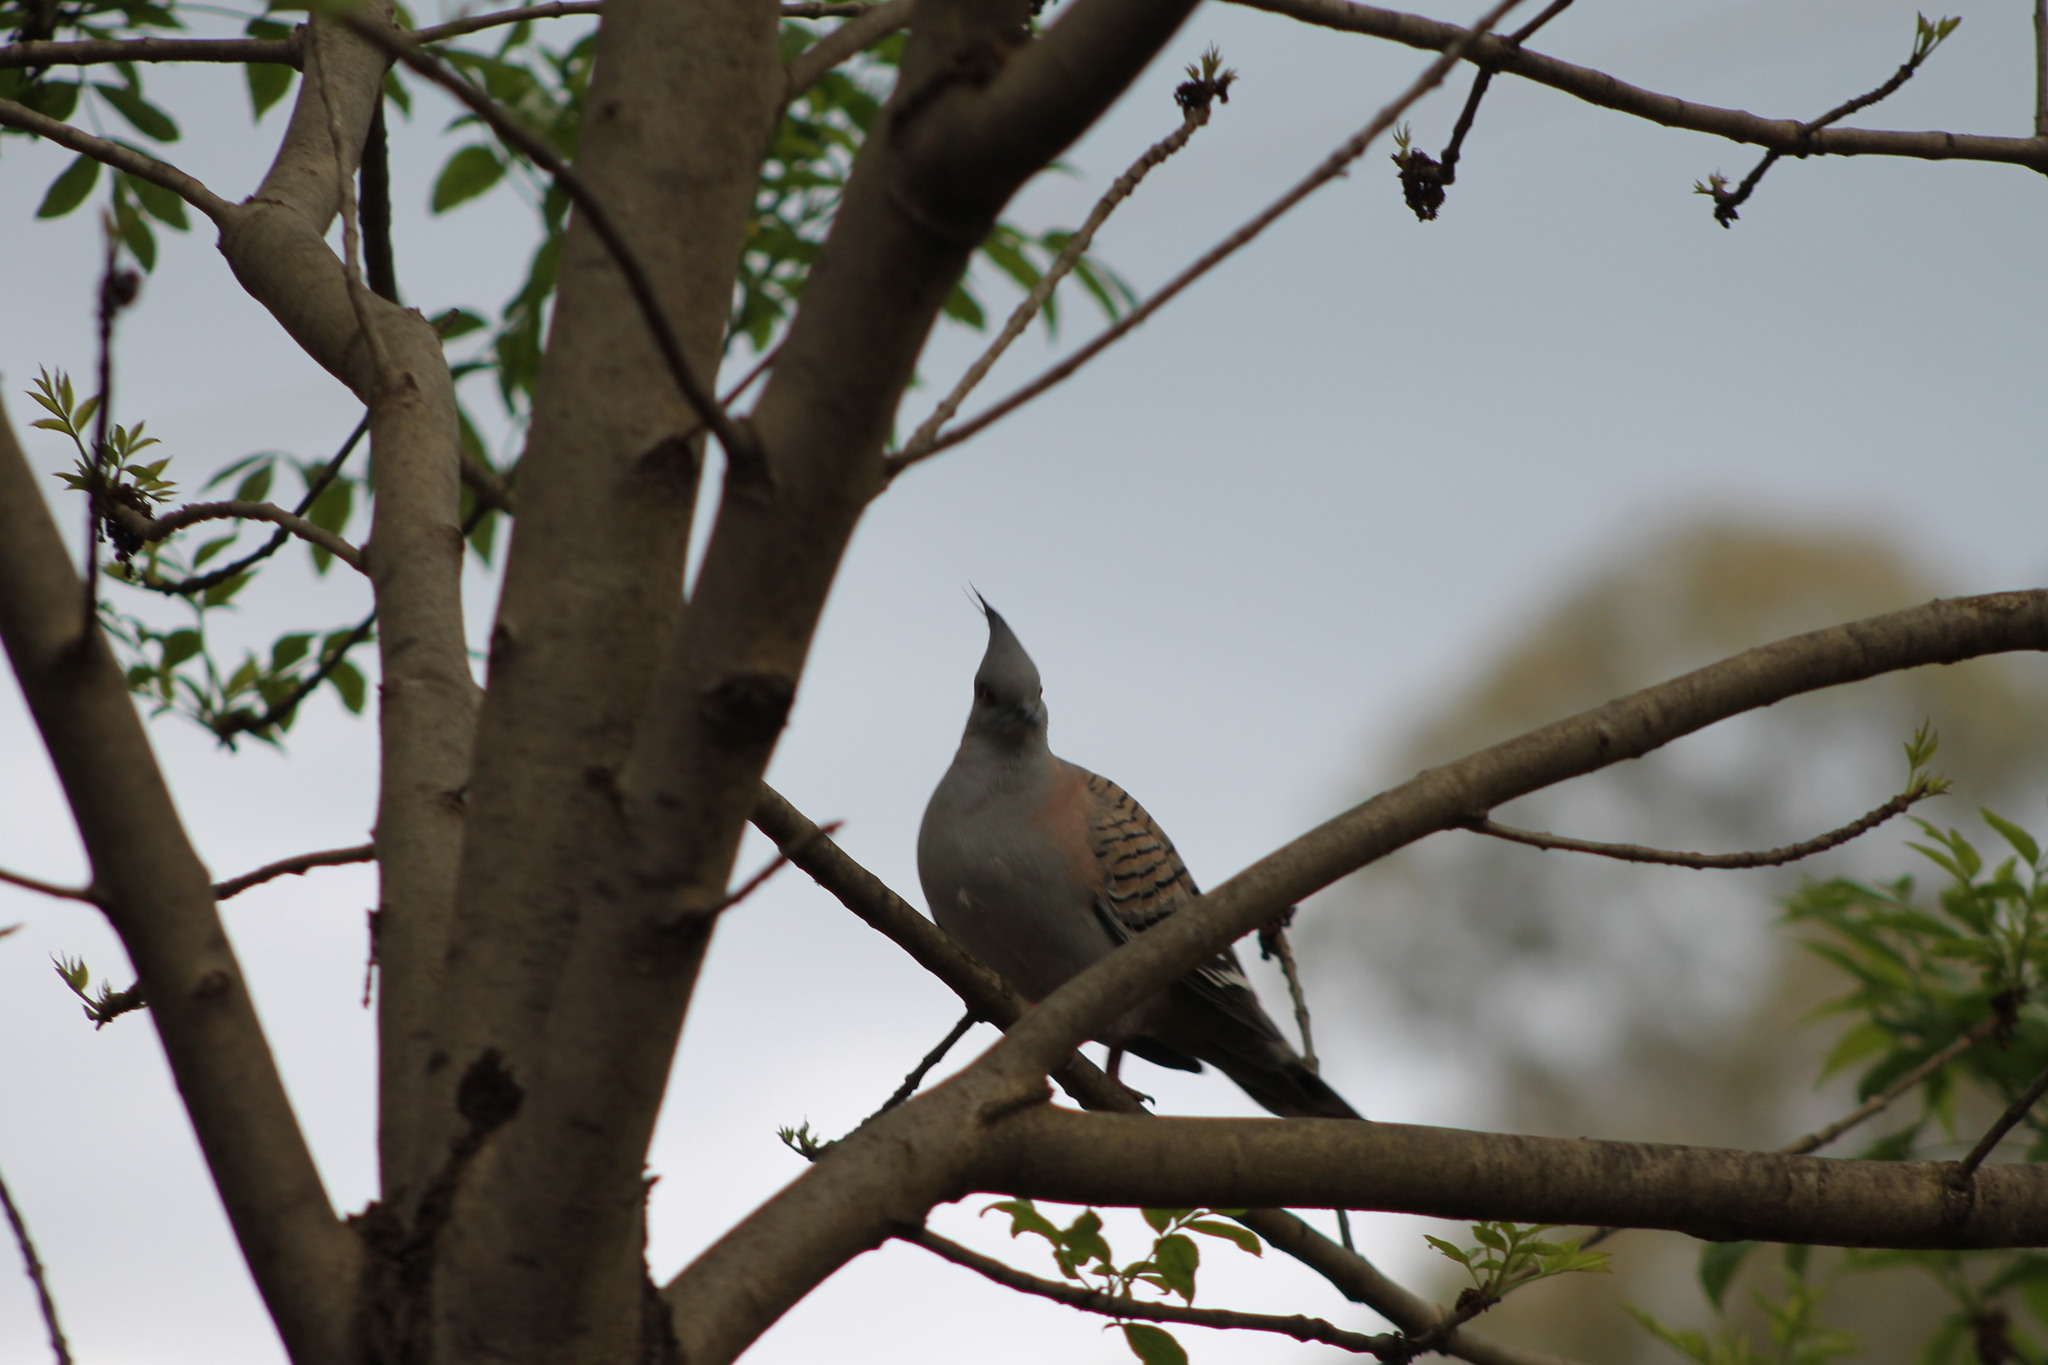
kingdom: Animalia
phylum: Chordata
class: Aves
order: Columbiformes
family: Columbidae
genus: Ocyphaps
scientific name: Ocyphaps lophotes
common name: Crested pigeon
